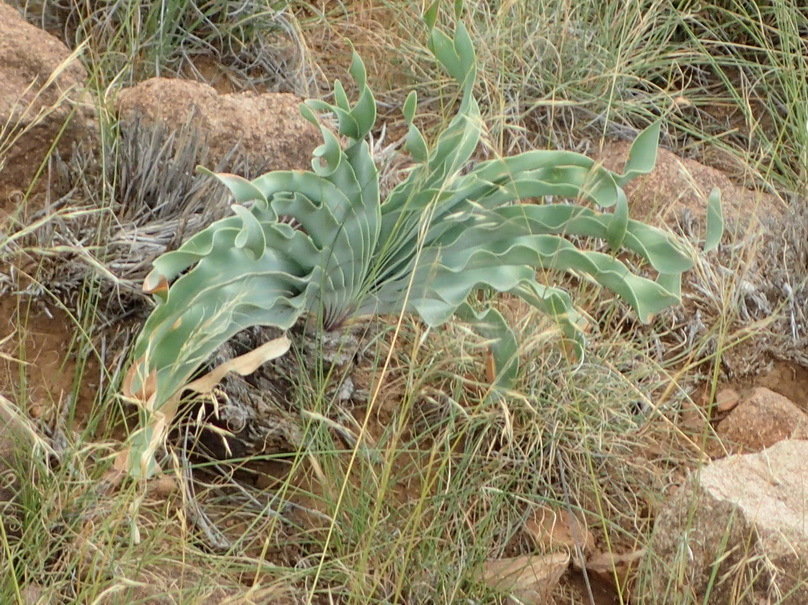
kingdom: Plantae
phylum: Tracheophyta
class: Liliopsida
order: Asparagales
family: Amaryllidaceae
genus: Boophone
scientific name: Boophone disticha
